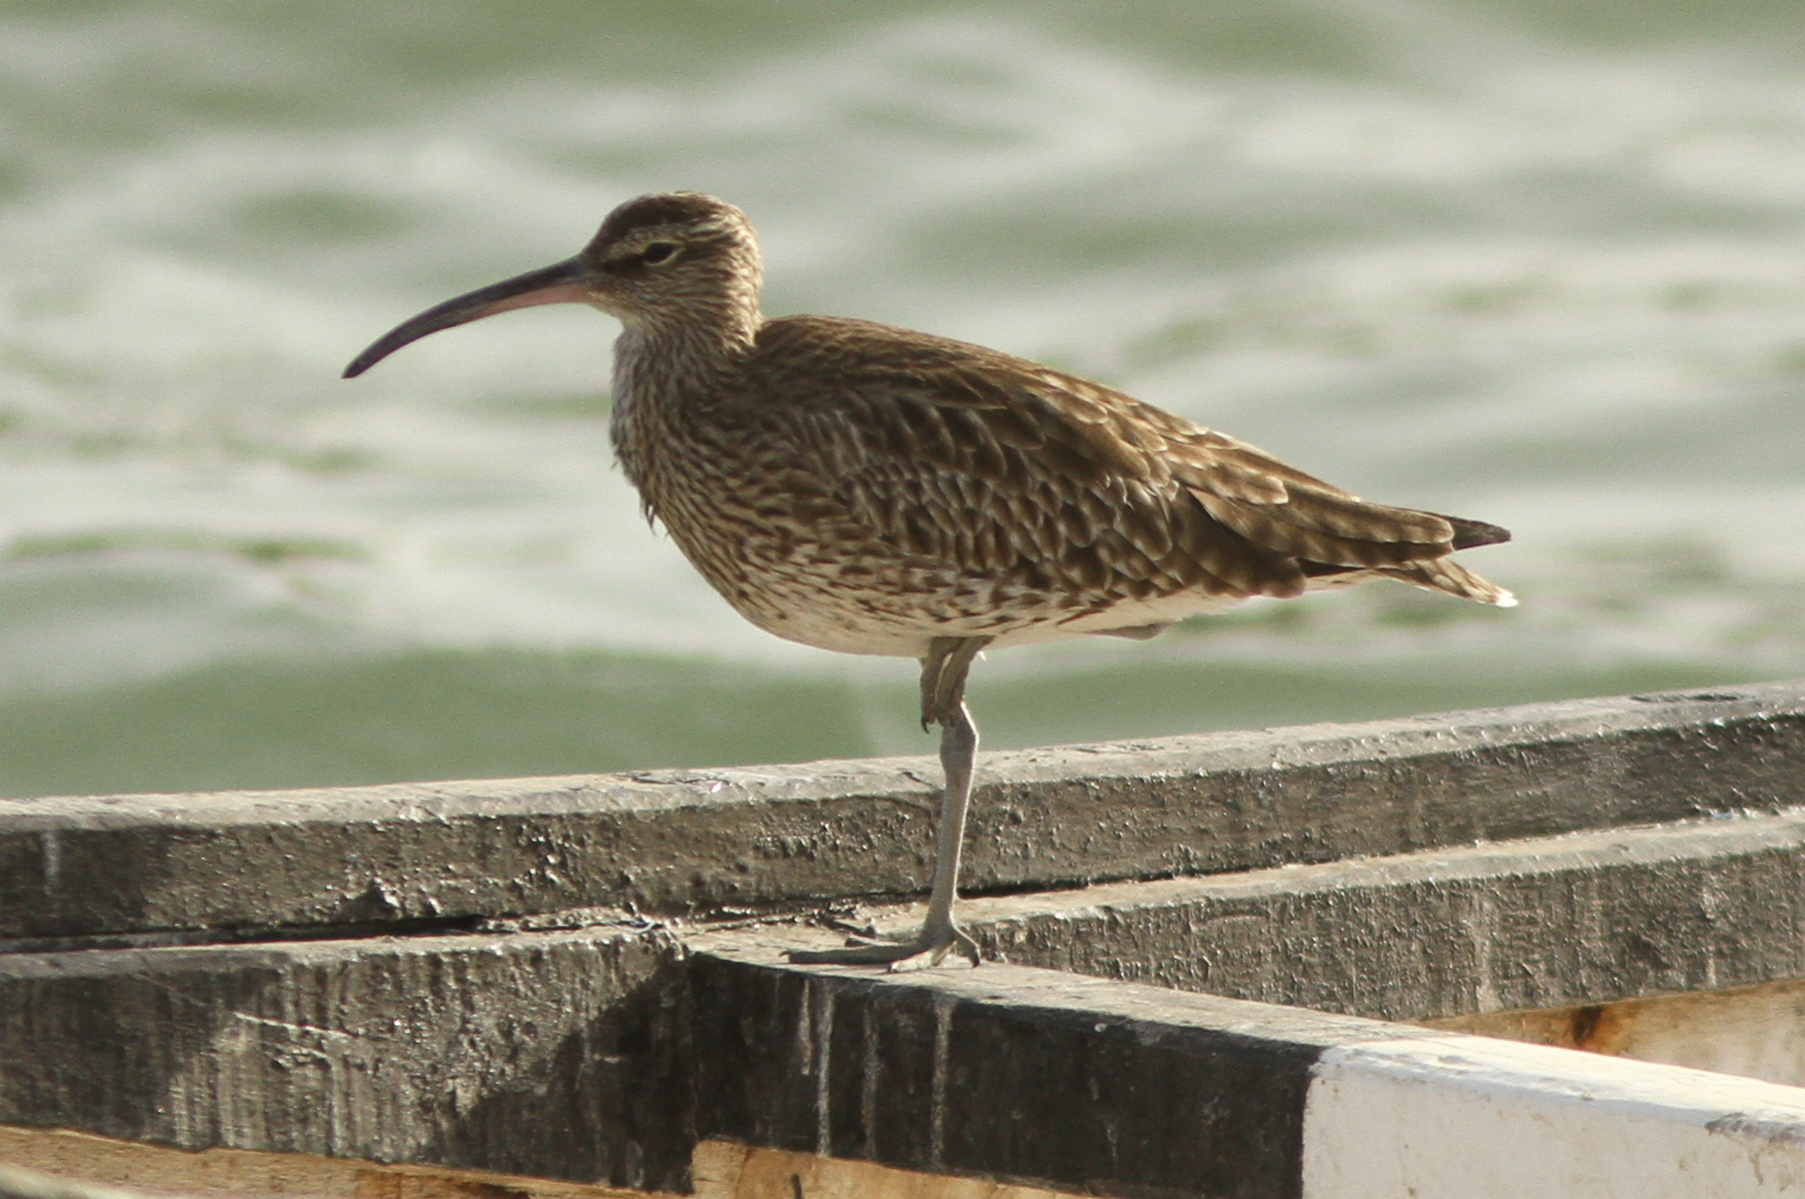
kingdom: Animalia
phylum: Chordata
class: Aves
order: Charadriiformes
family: Scolopacidae
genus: Numenius
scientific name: Numenius phaeopus
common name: Whimbrel
